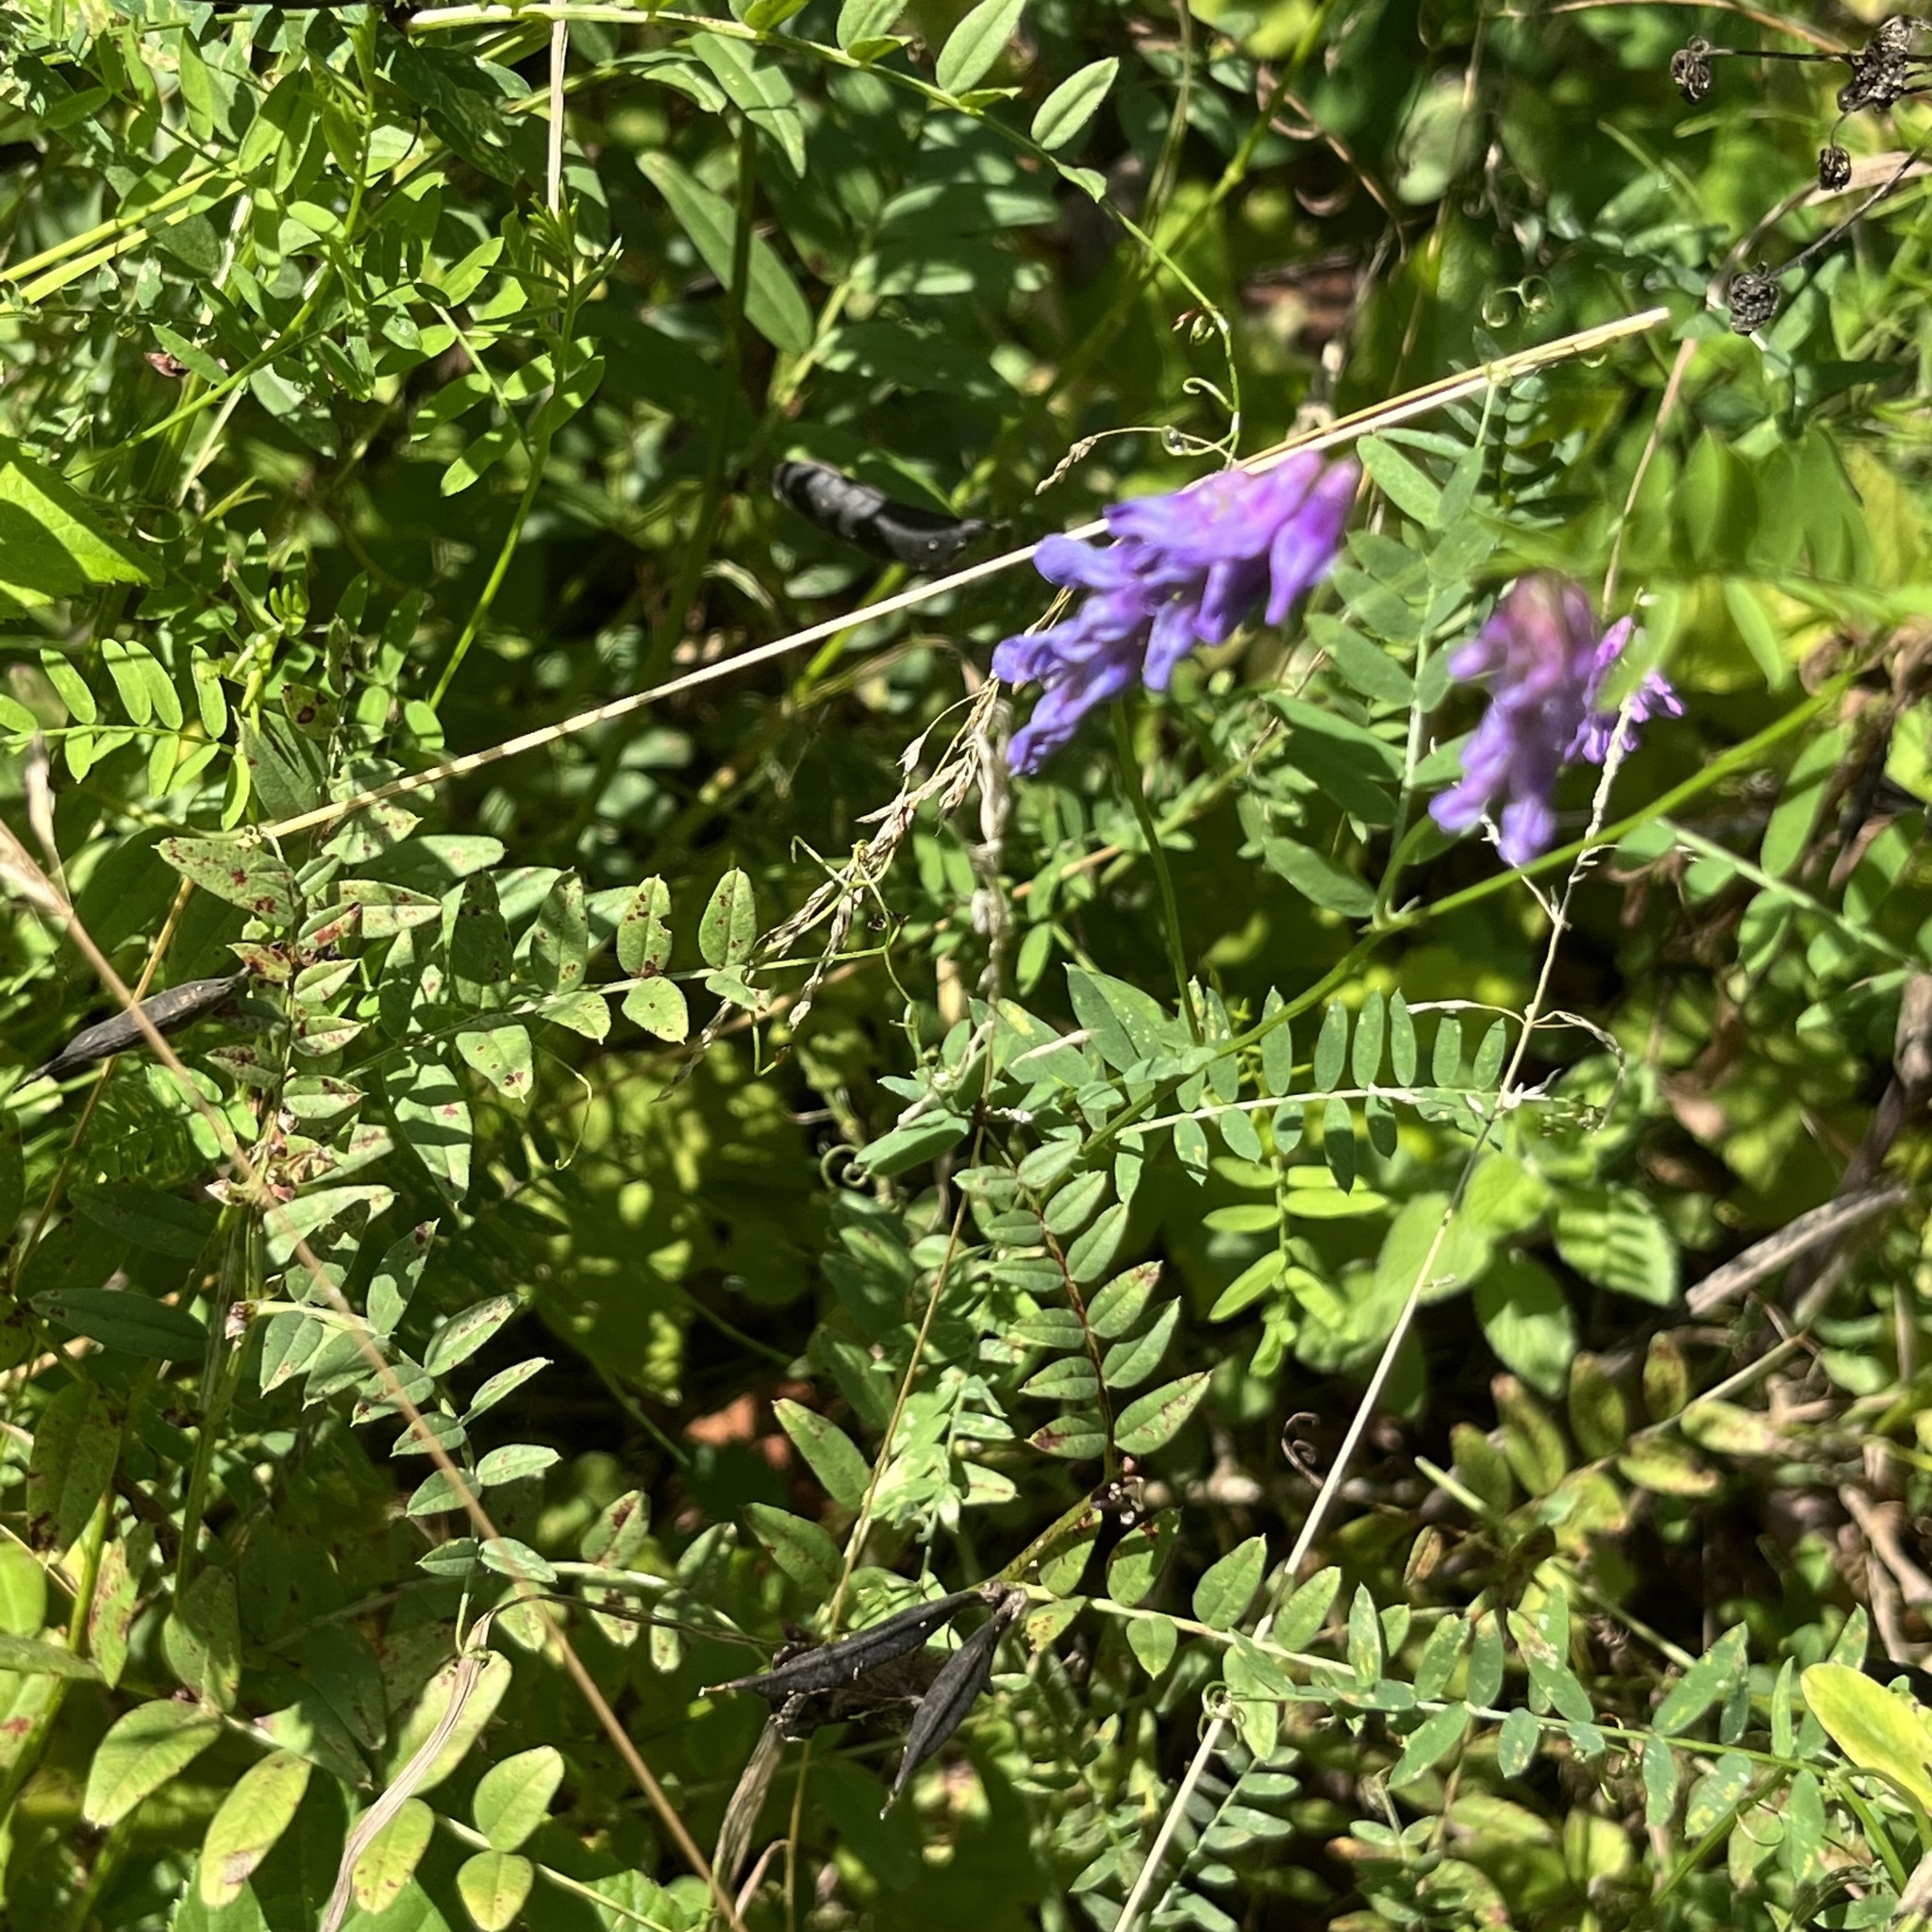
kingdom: Plantae
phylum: Tracheophyta
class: Magnoliopsida
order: Fabales
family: Fabaceae
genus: Vicia
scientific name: Vicia cracca
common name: Bird vetch
